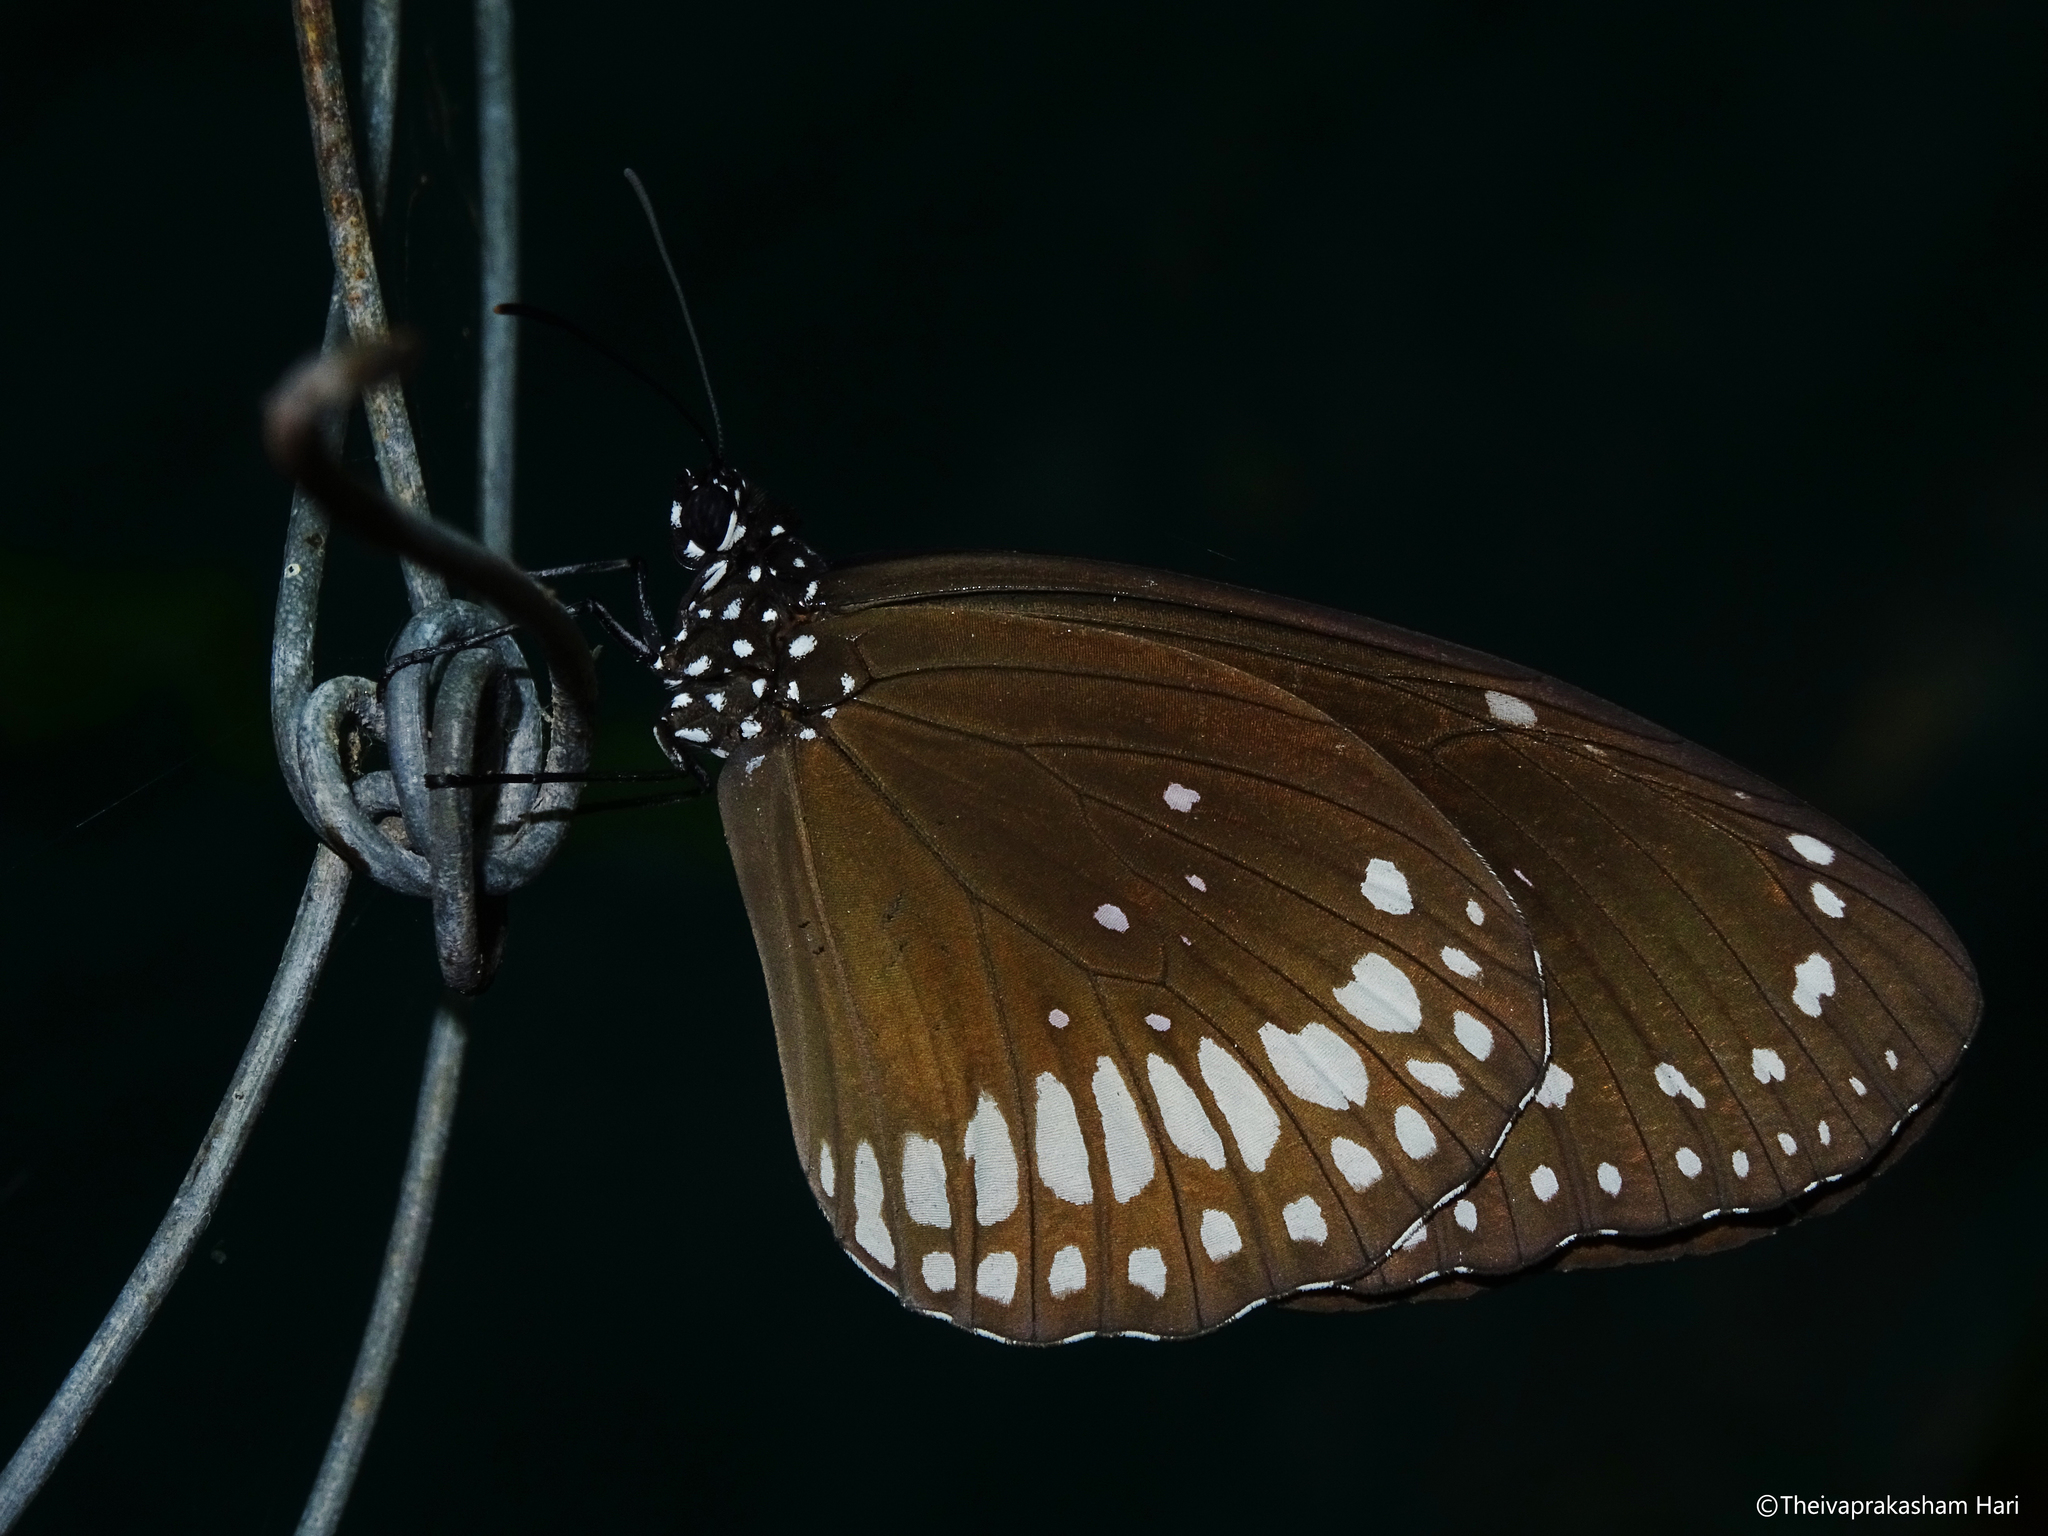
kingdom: Animalia
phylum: Arthropoda
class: Insecta
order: Lepidoptera
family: Nymphalidae
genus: Euploea
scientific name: Euploea core
